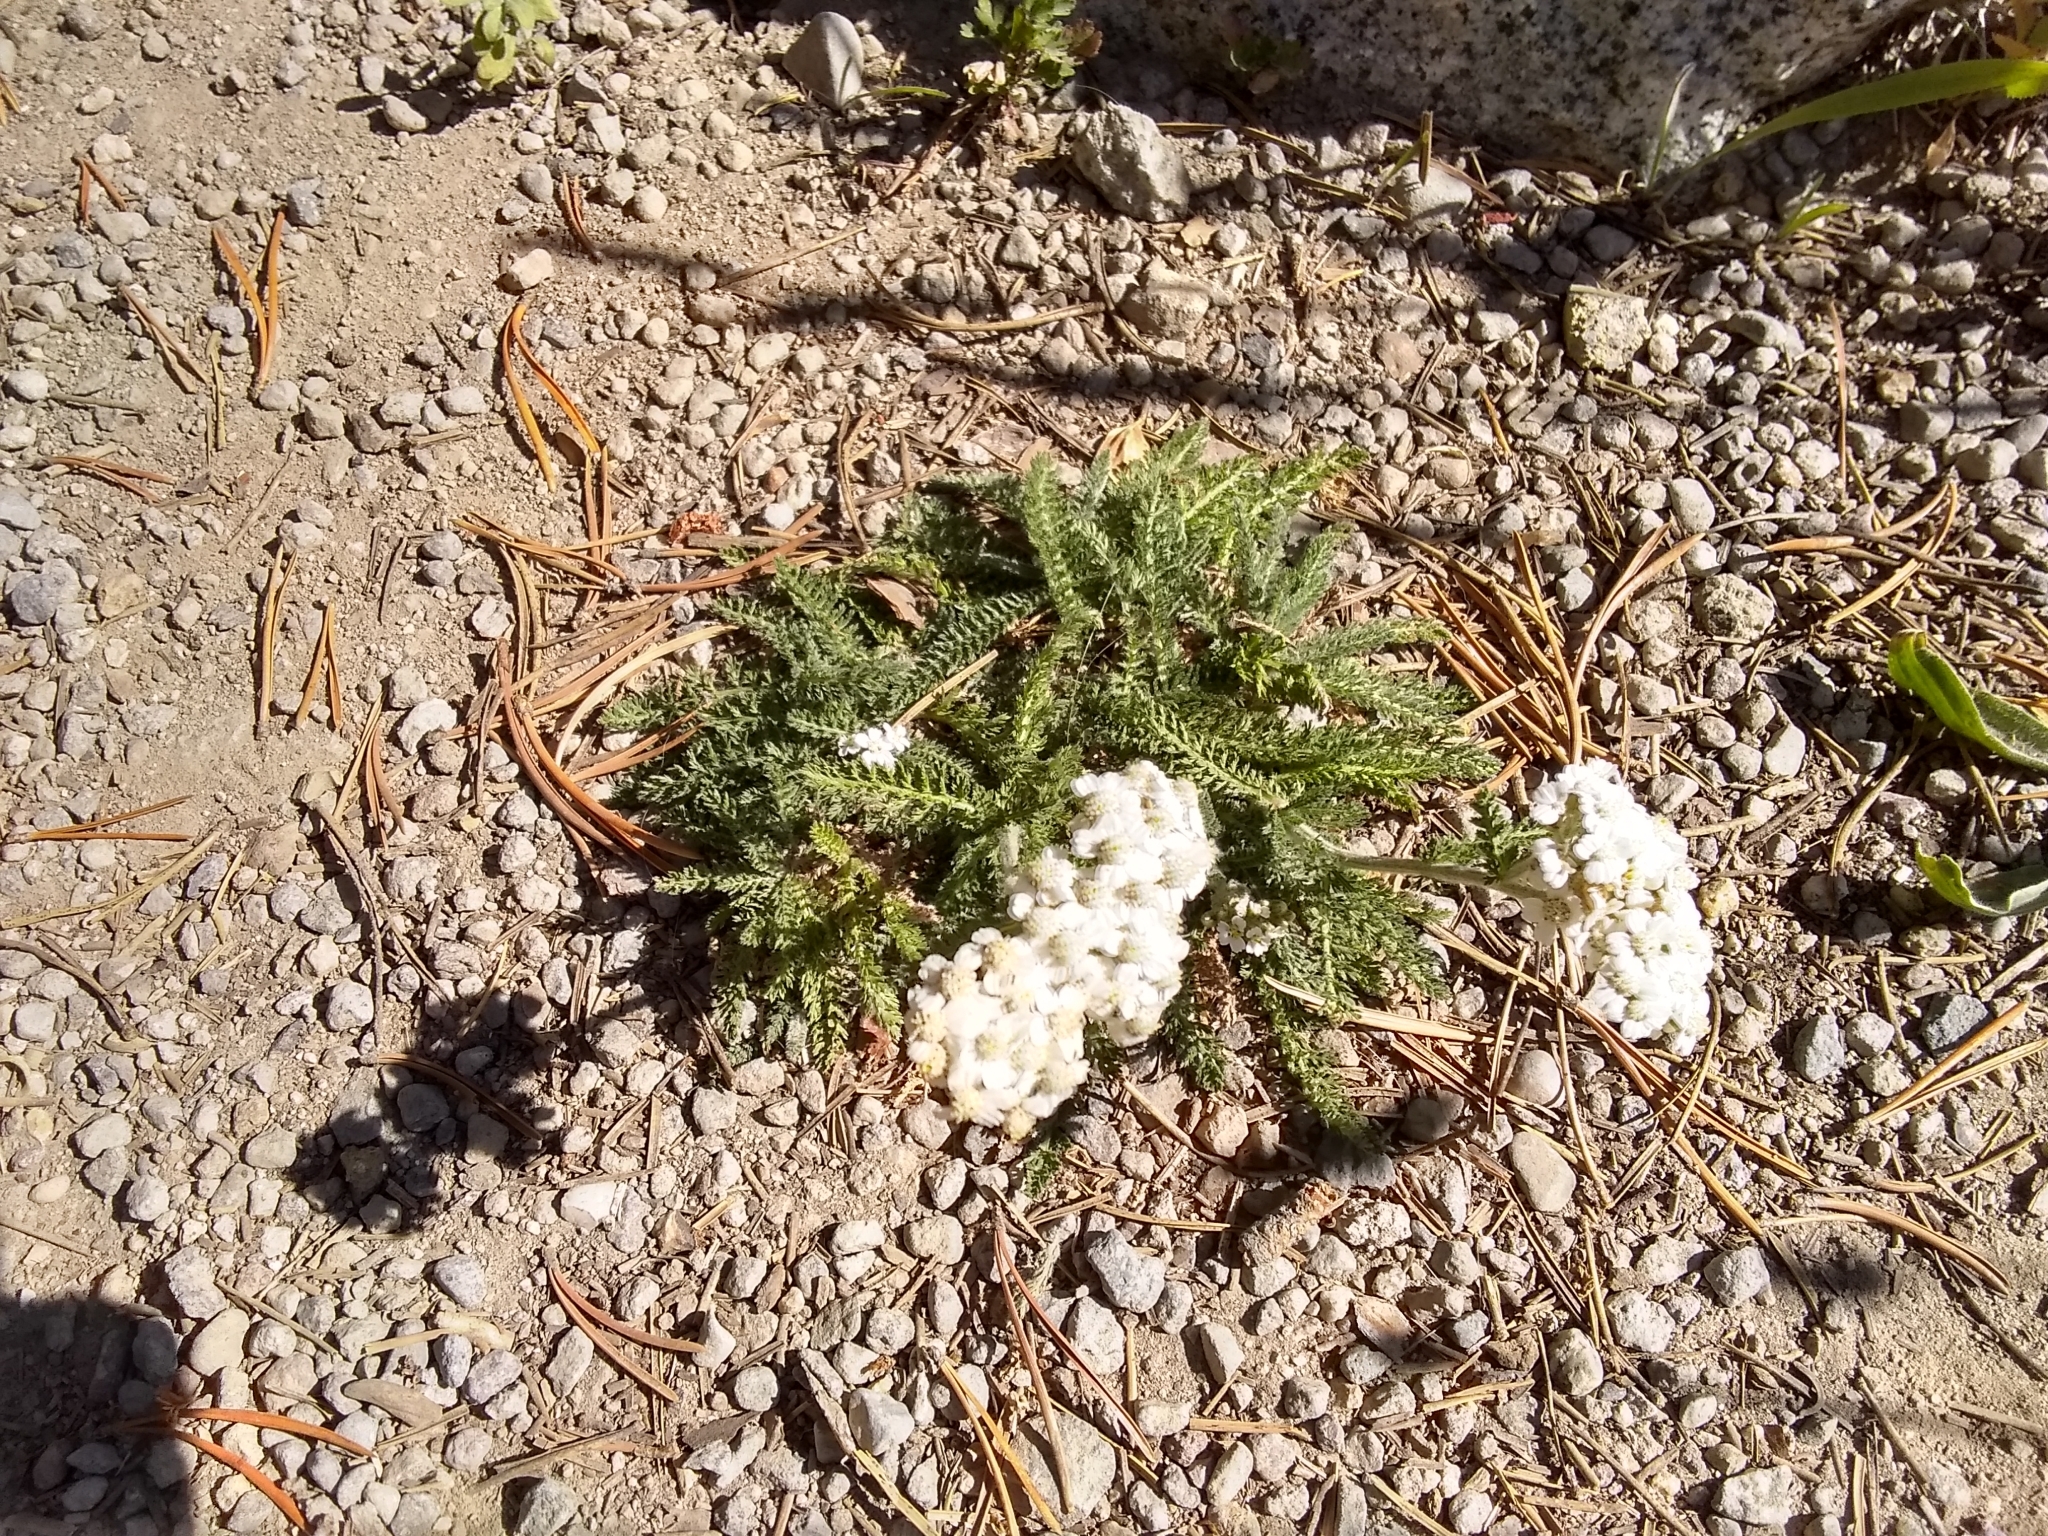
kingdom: Plantae
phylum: Tracheophyta
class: Magnoliopsida
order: Asterales
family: Asteraceae
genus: Achillea
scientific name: Achillea millefolium
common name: Yarrow
